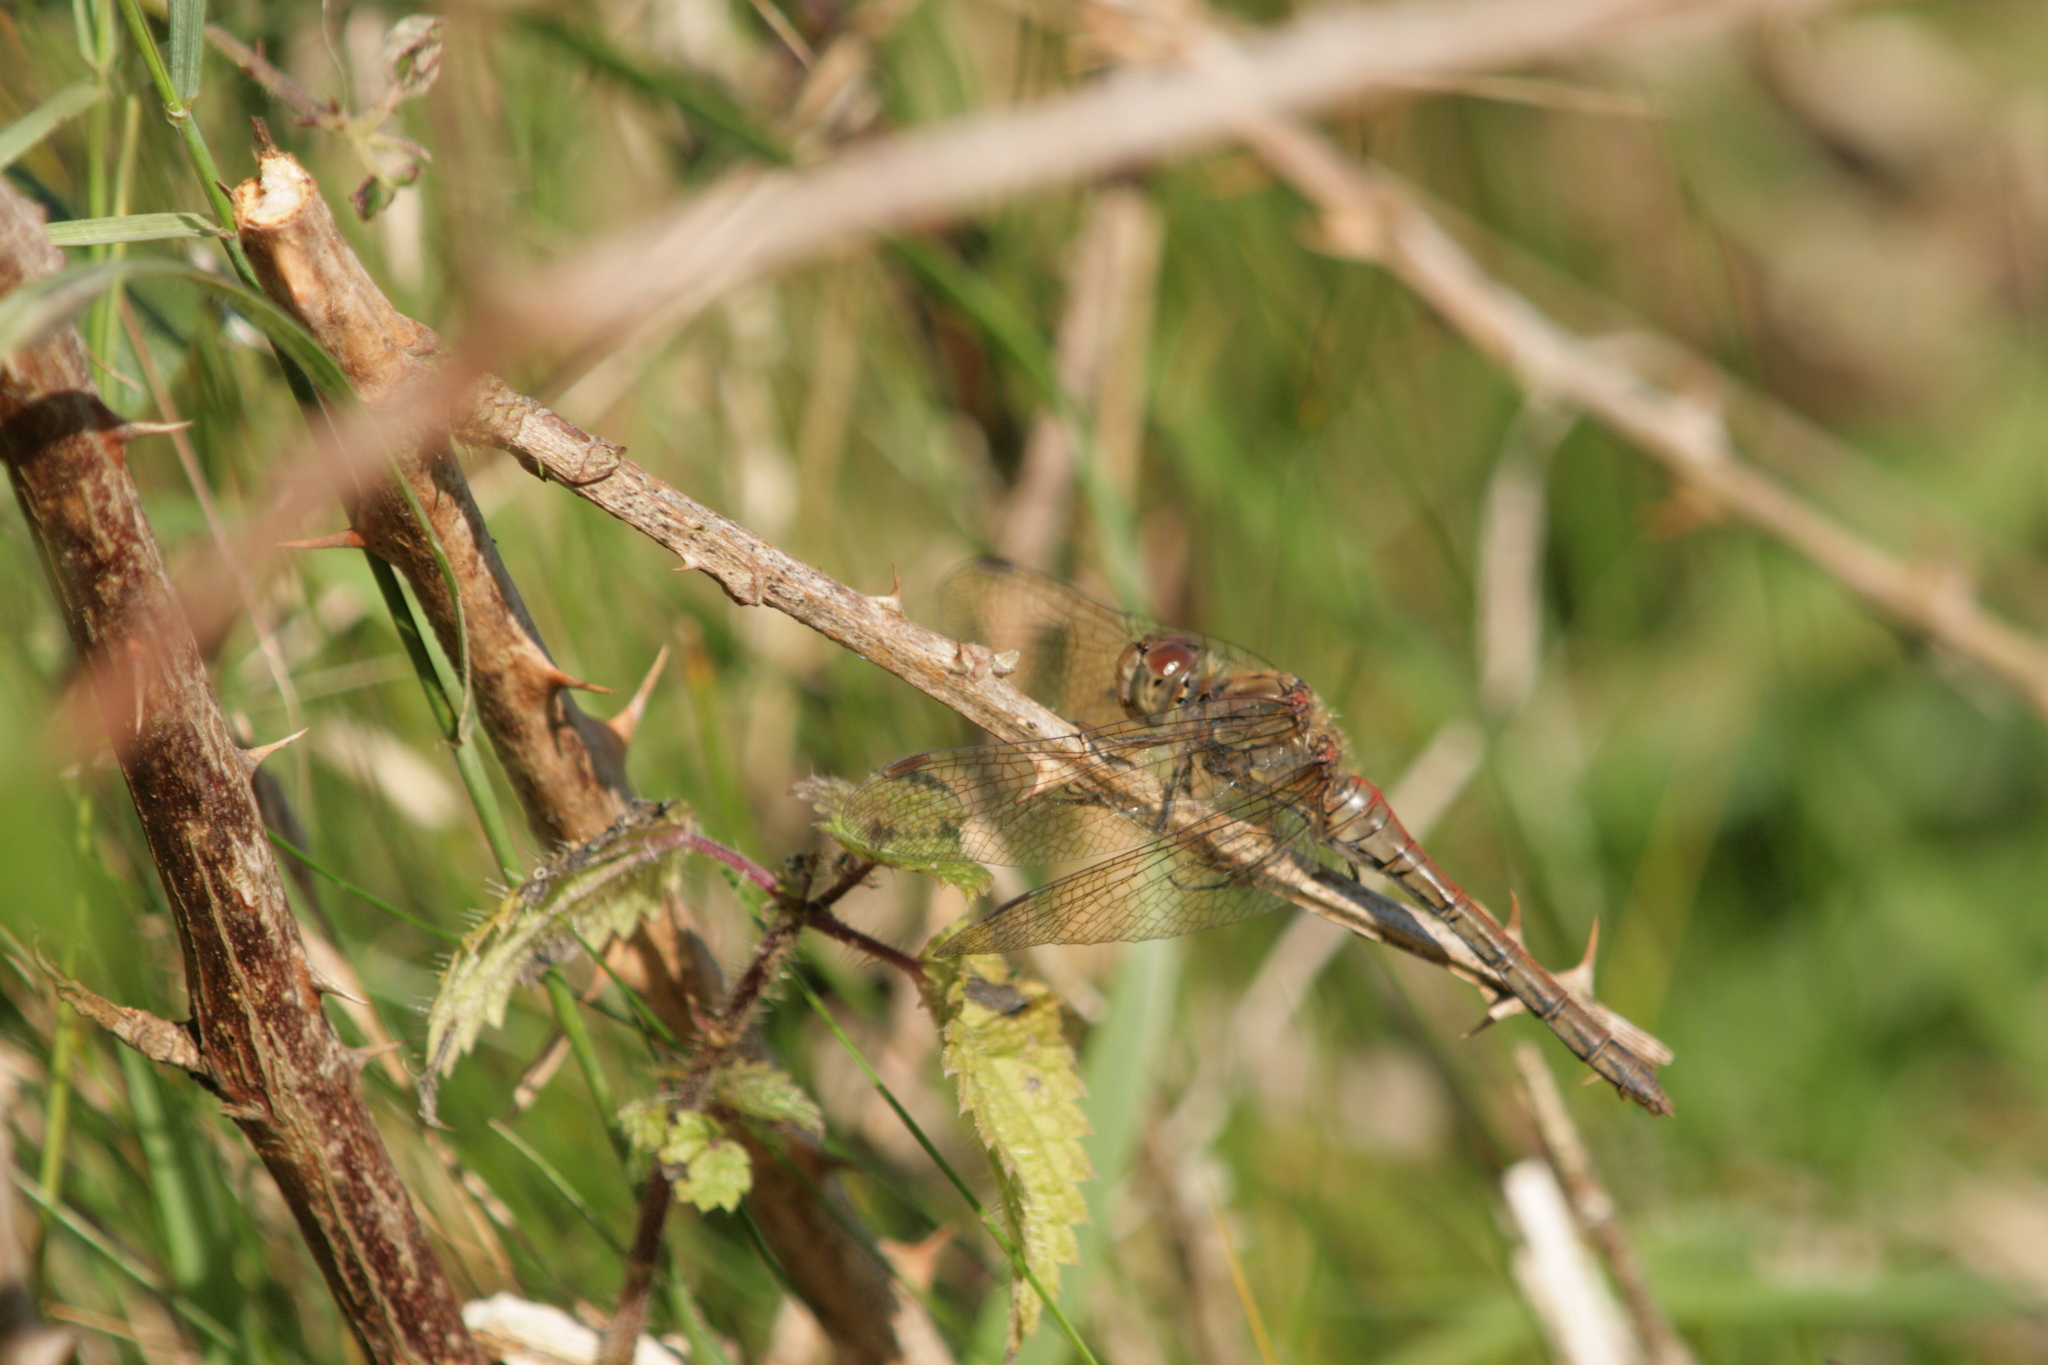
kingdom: Animalia
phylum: Arthropoda
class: Insecta
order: Odonata
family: Libellulidae
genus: Sympetrum
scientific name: Sympetrum striolatum
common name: Common darter
